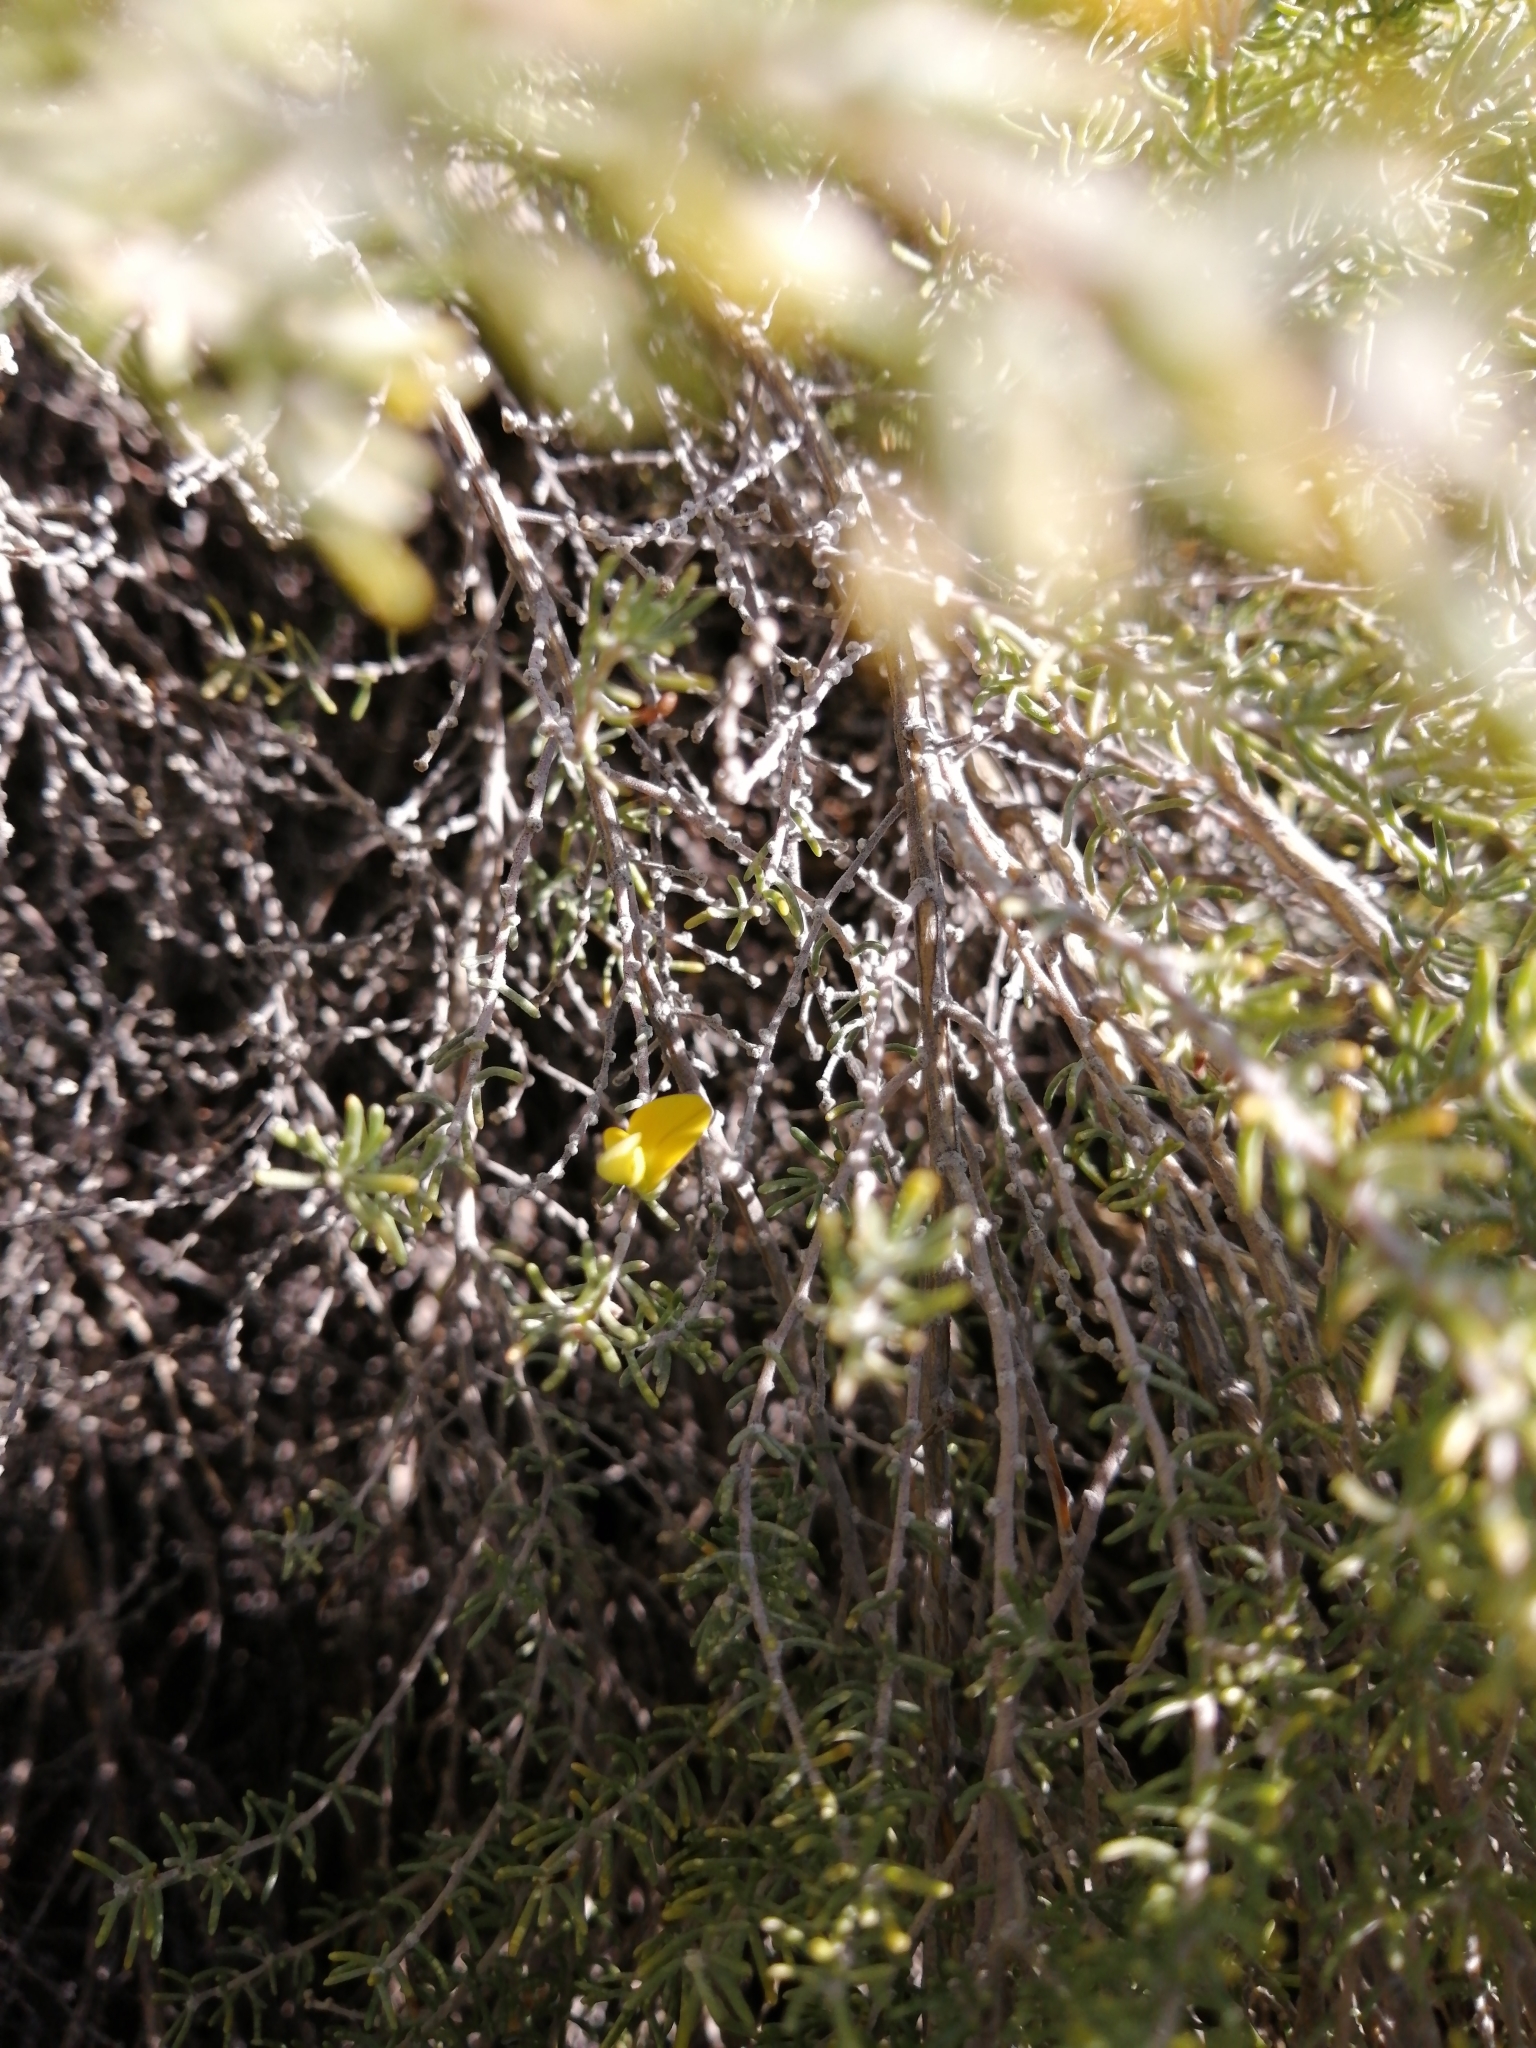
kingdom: Plantae
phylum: Tracheophyta
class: Magnoliopsida
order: Fabales
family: Fabaceae
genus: Aspalathus
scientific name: Aspalathus lactea
